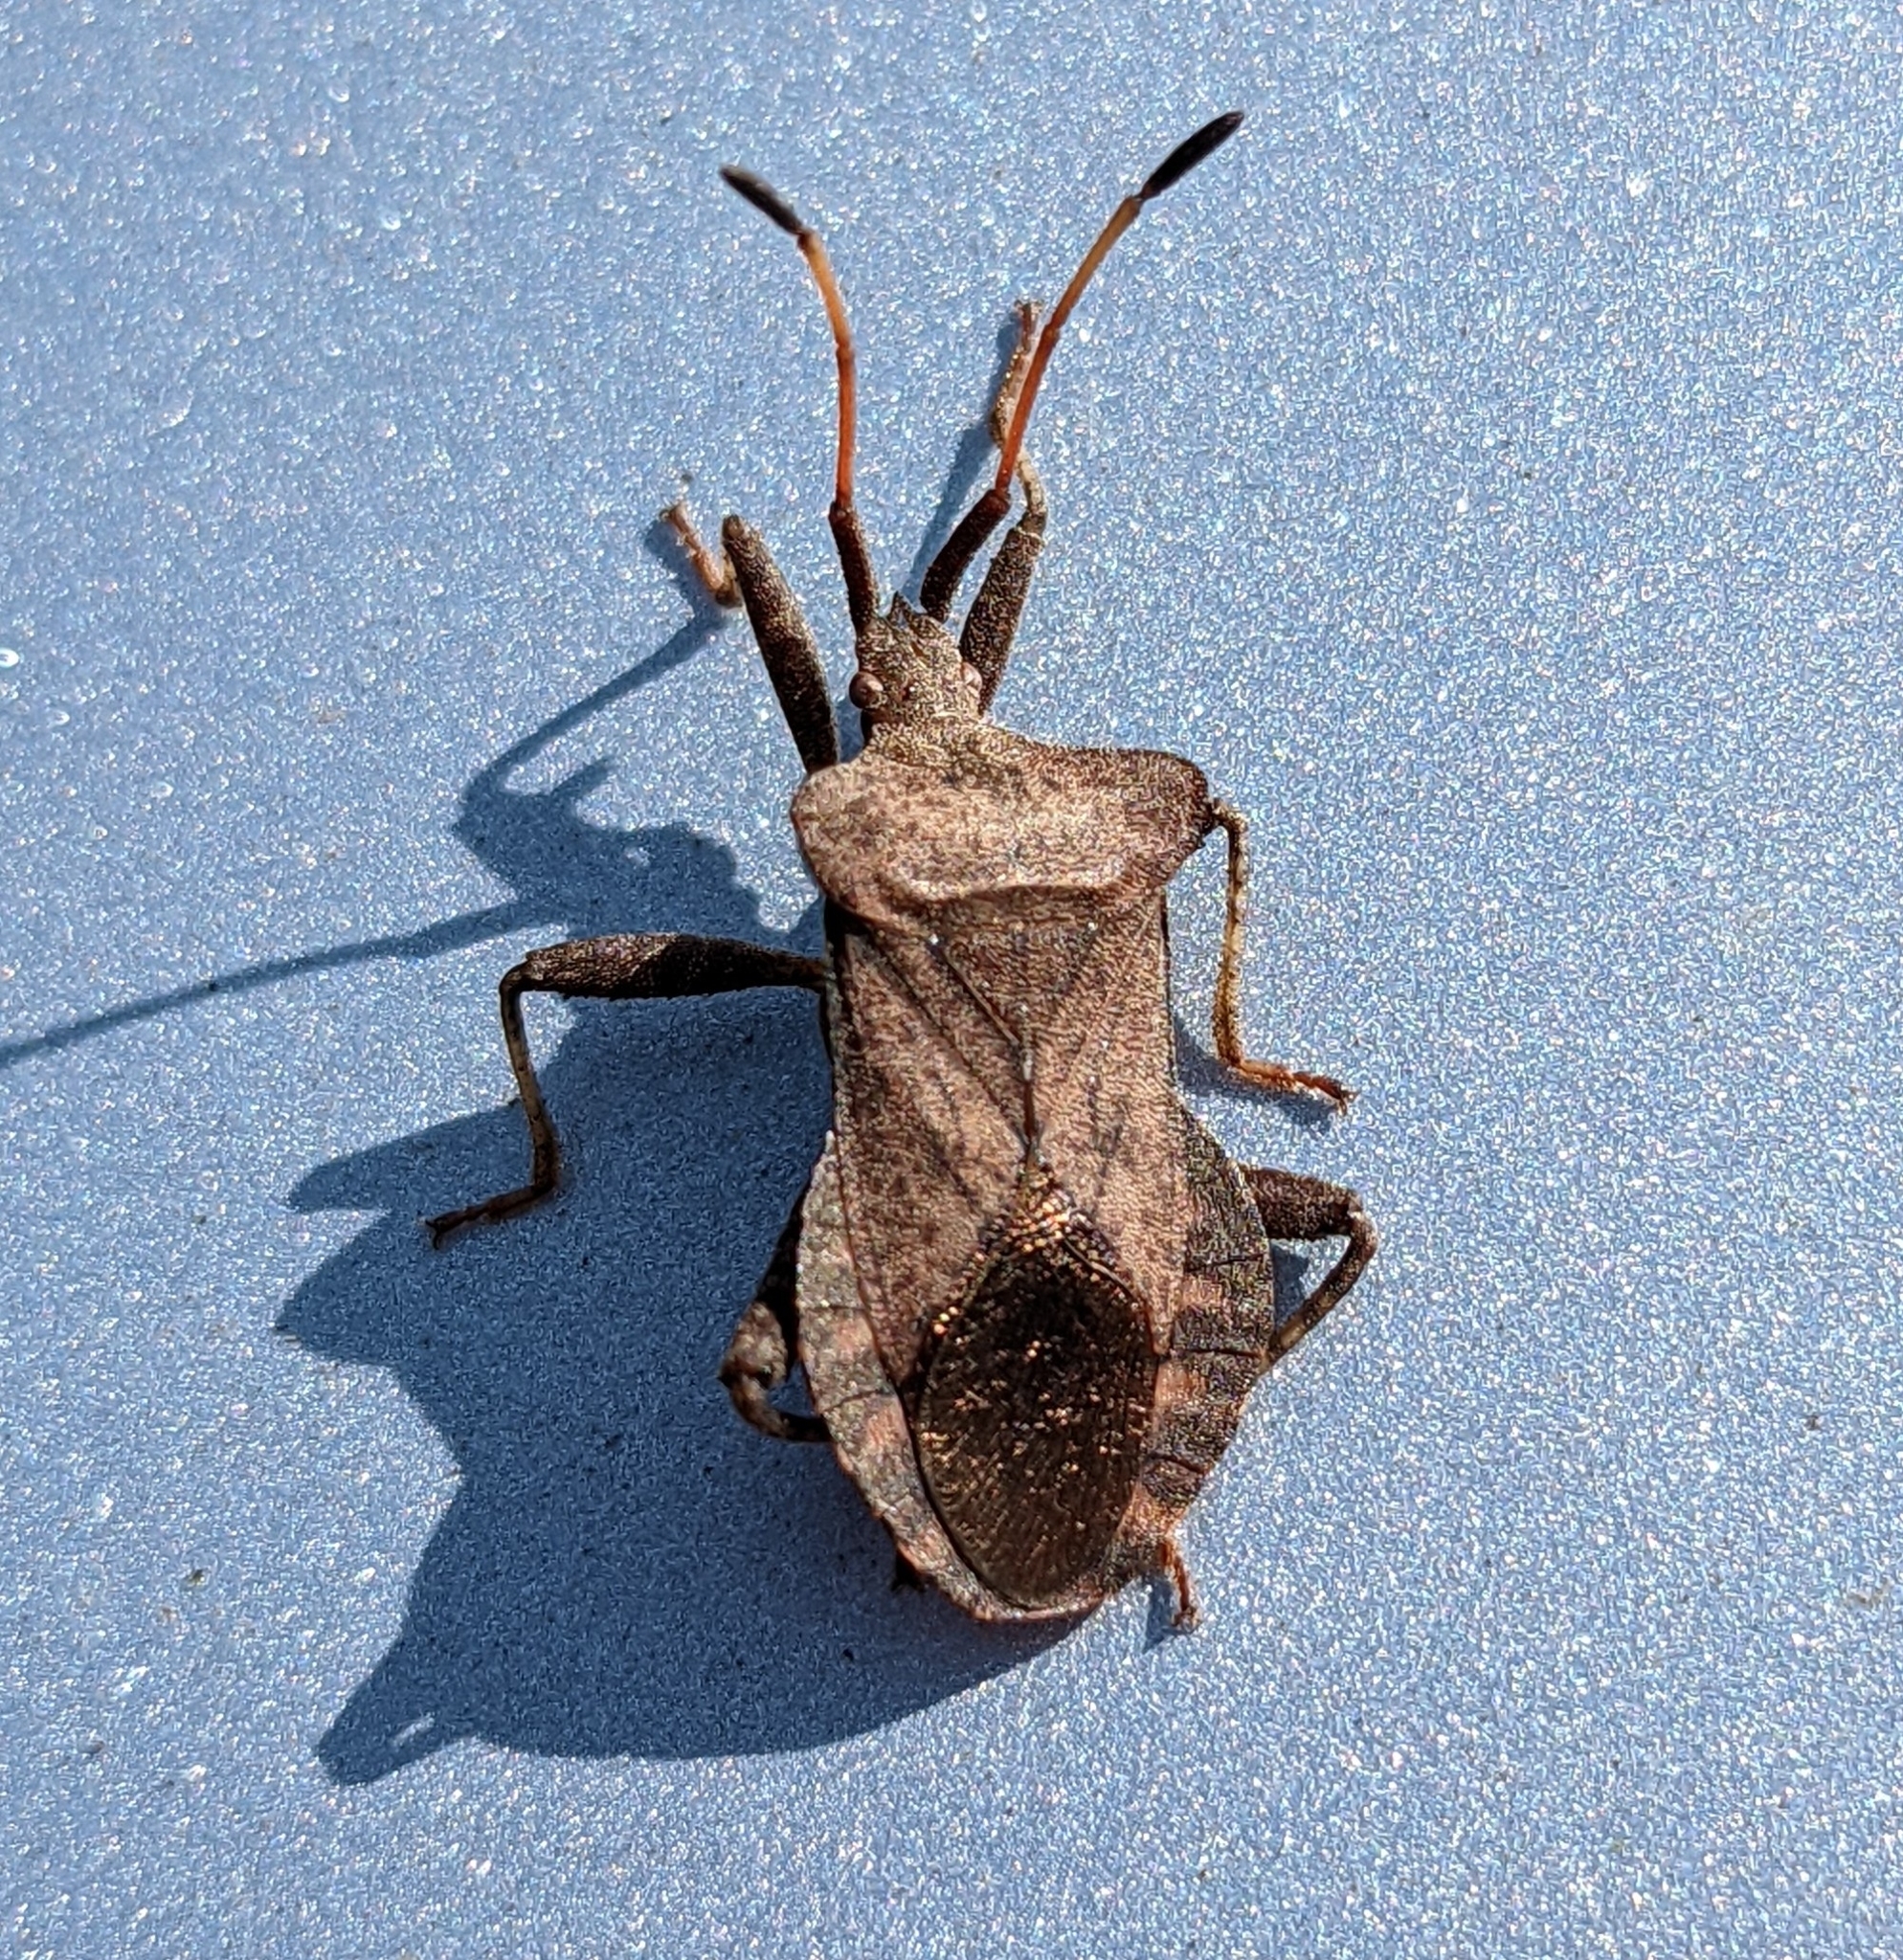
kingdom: Animalia
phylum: Arthropoda
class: Insecta
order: Hemiptera
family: Coreidae
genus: Coreus
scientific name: Coreus marginatus
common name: Dock bug
